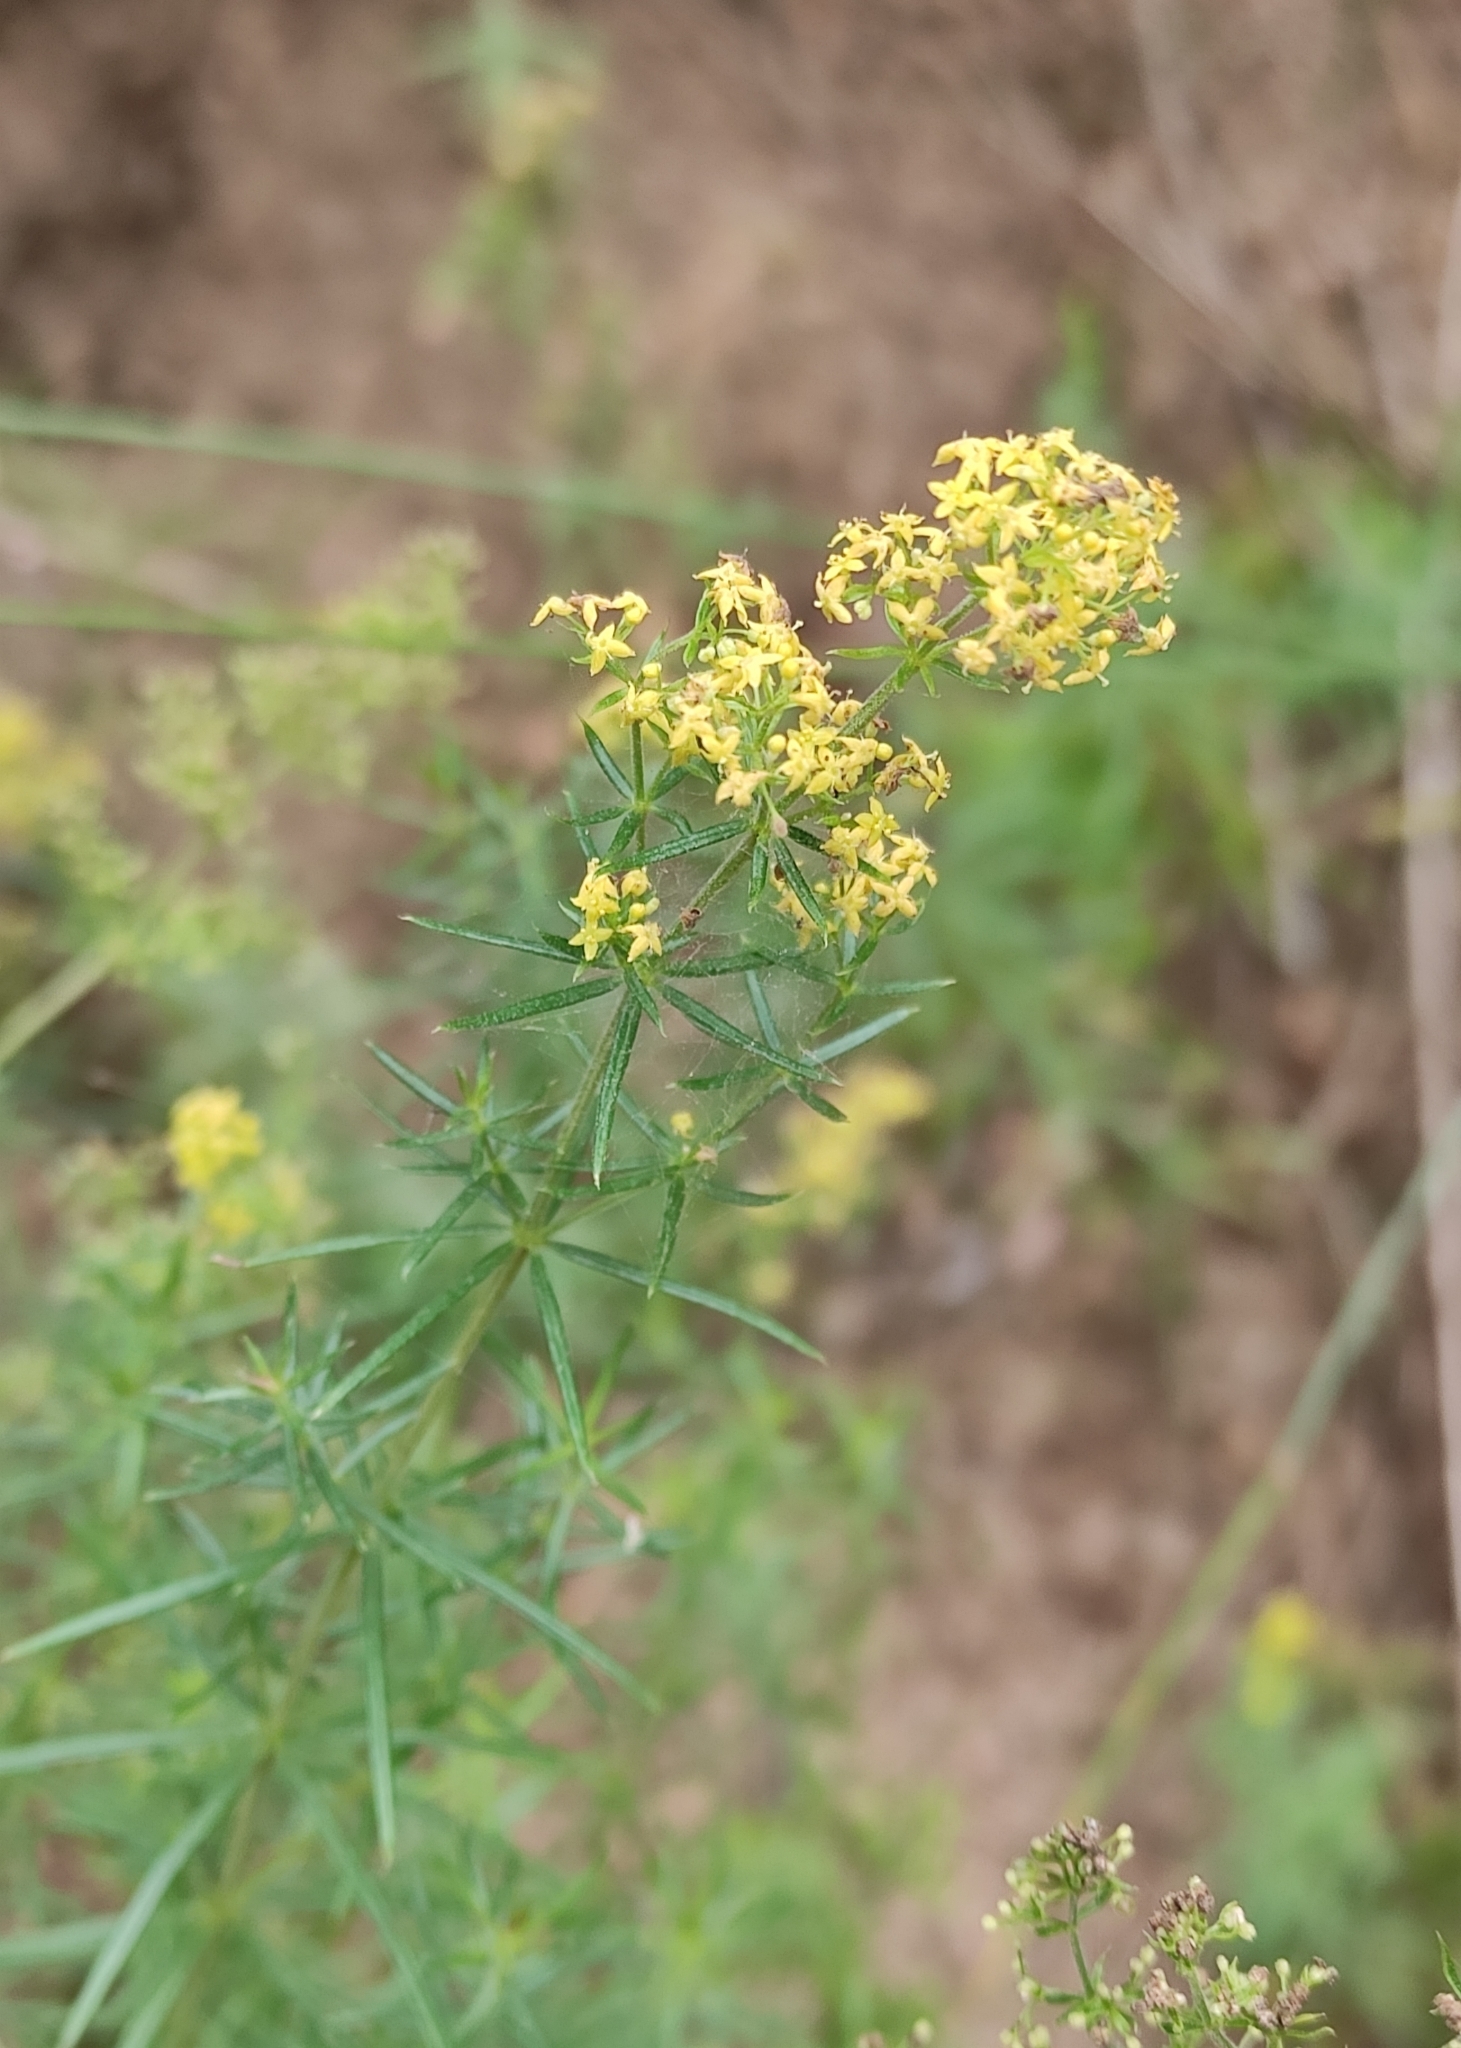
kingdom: Plantae
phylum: Tracheophyta
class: Magnoliopsida
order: Gentianales
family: Rubiaceae
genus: Galium
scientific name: Galium verum
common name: Lady's bedstraw
